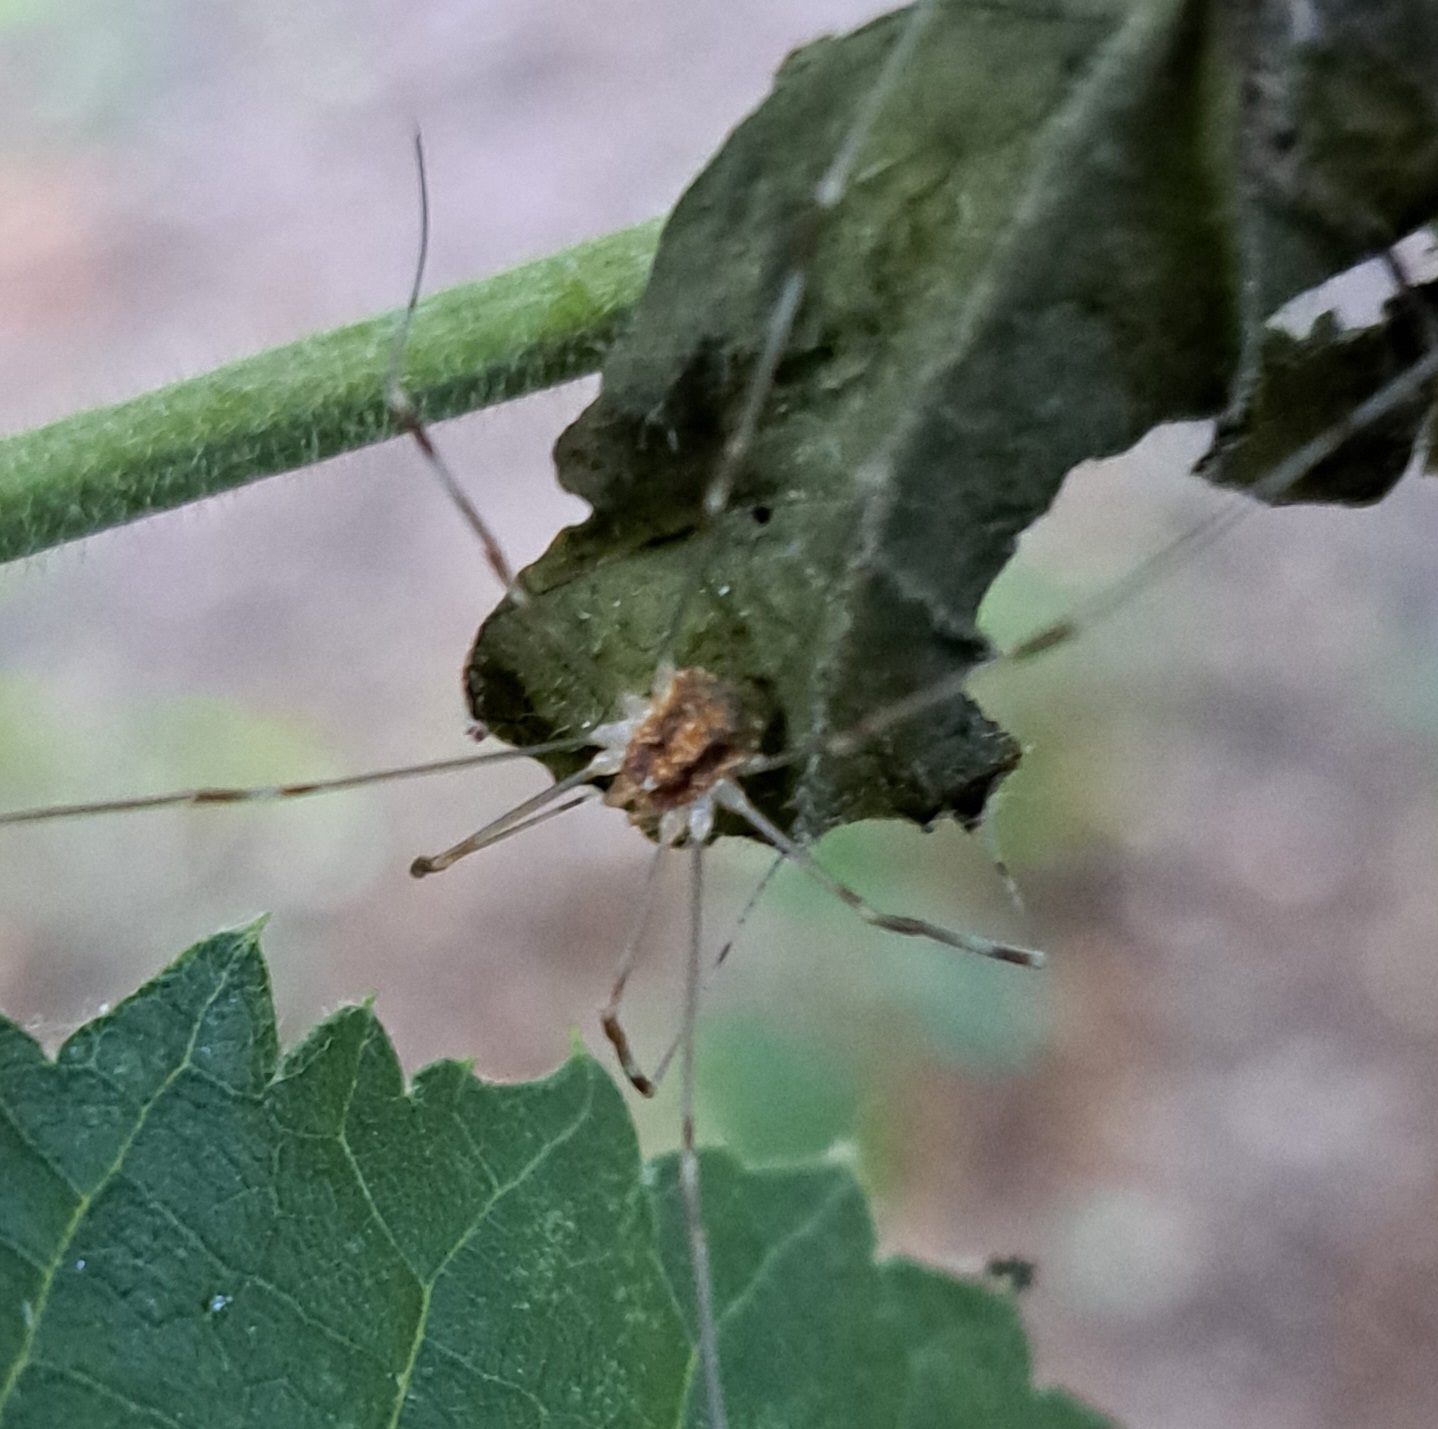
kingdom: Animalia
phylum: Arthropoda
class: Arachnida
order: Opiliones
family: Phalangiidae
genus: Opilio
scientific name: Opilio canestrinii
